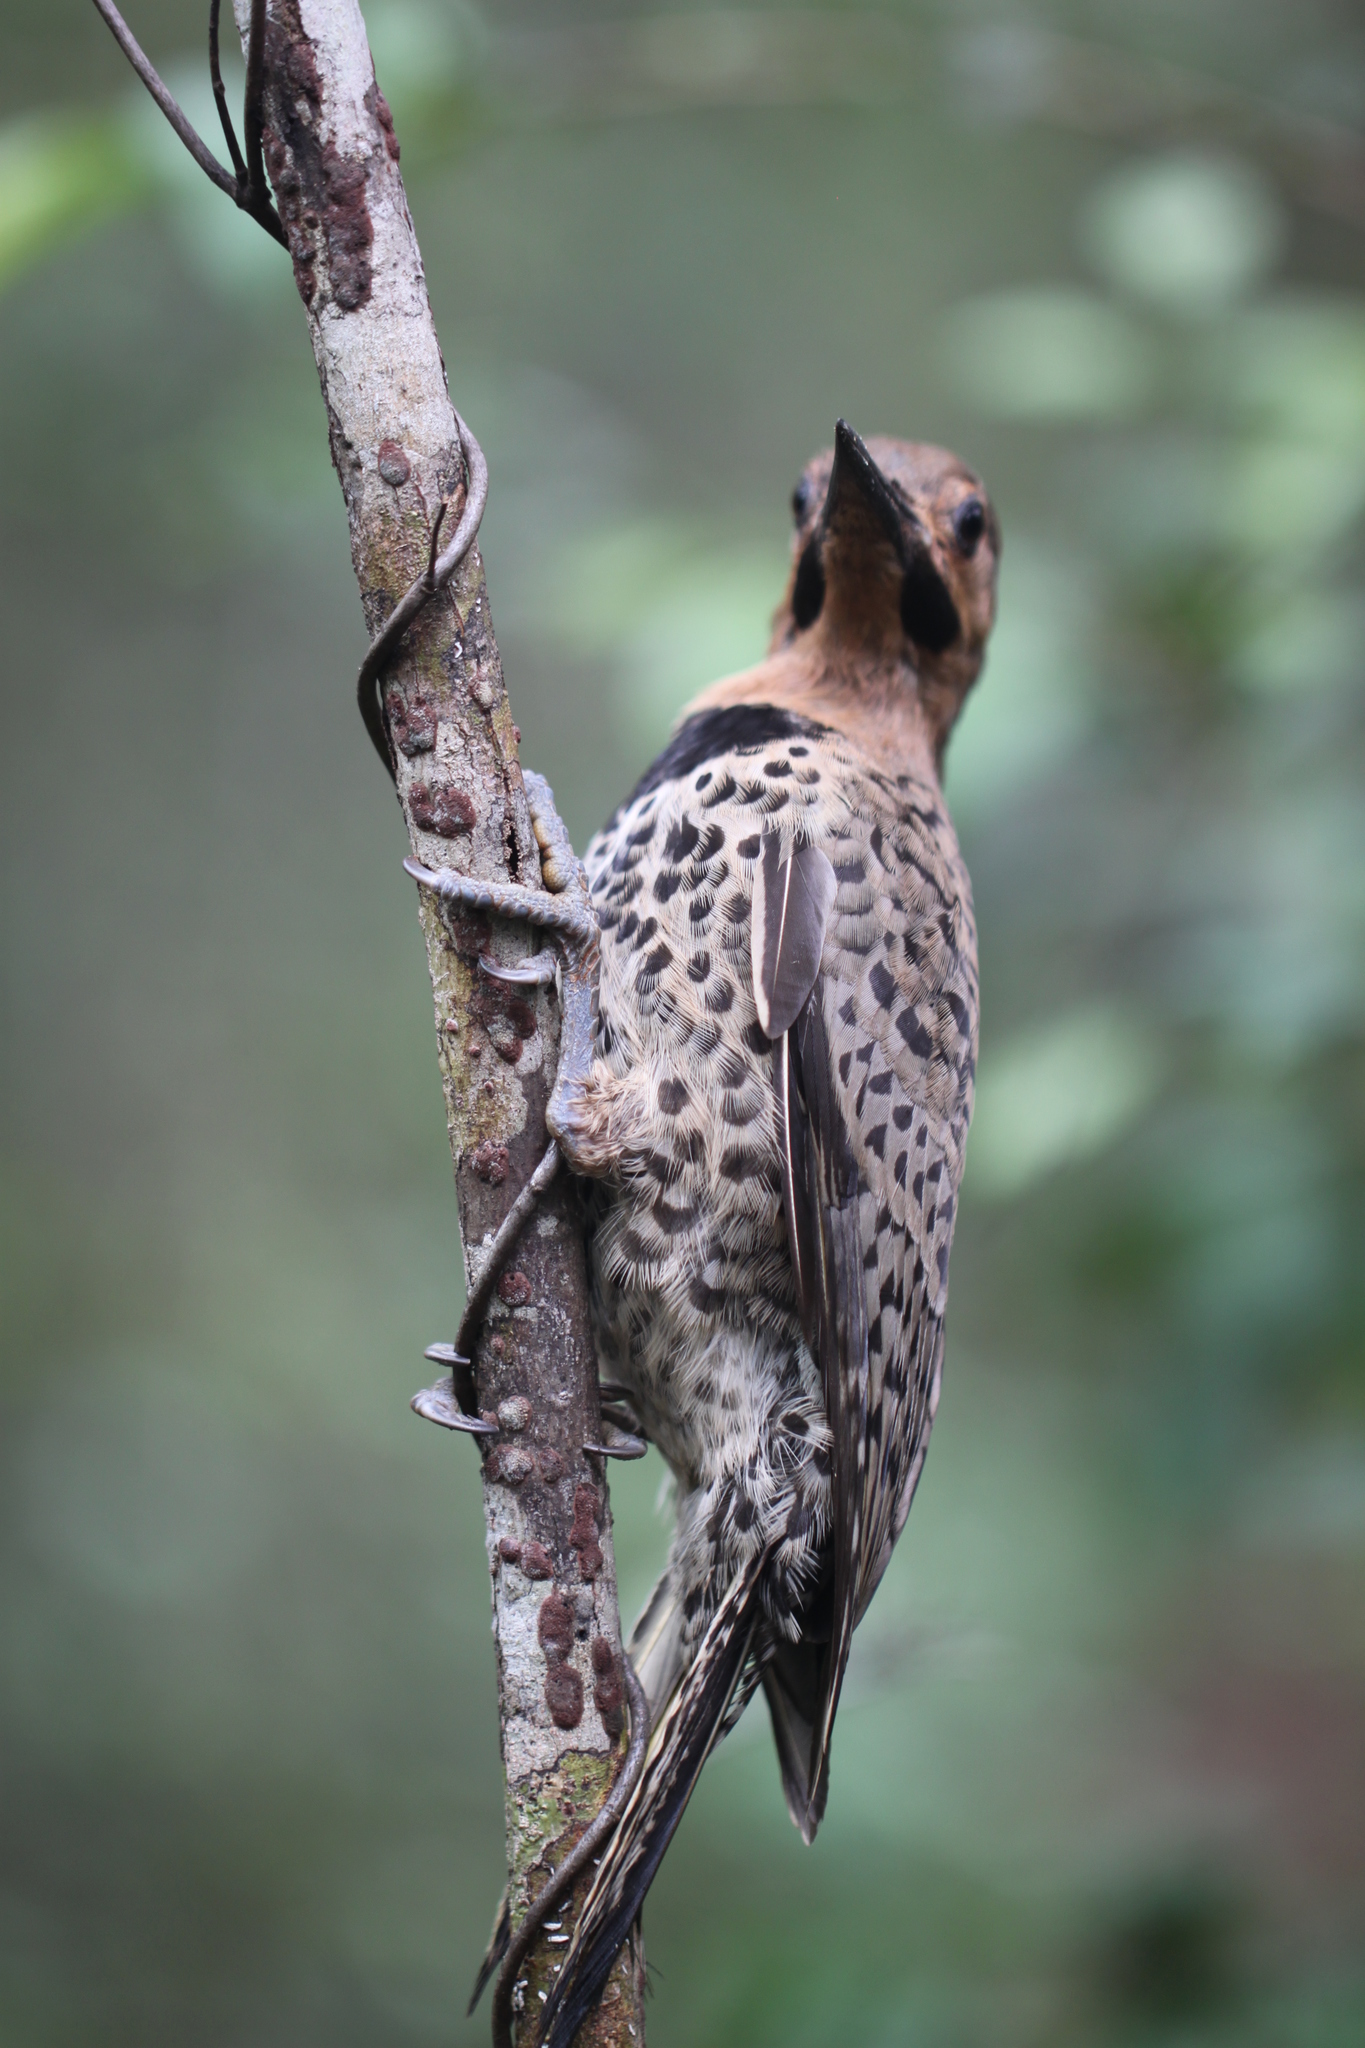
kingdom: Animalia
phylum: Chordata
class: Aves
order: Piciformes
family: Picidae
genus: Colaptes
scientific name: Colaptes auratus
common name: Northern flicker
